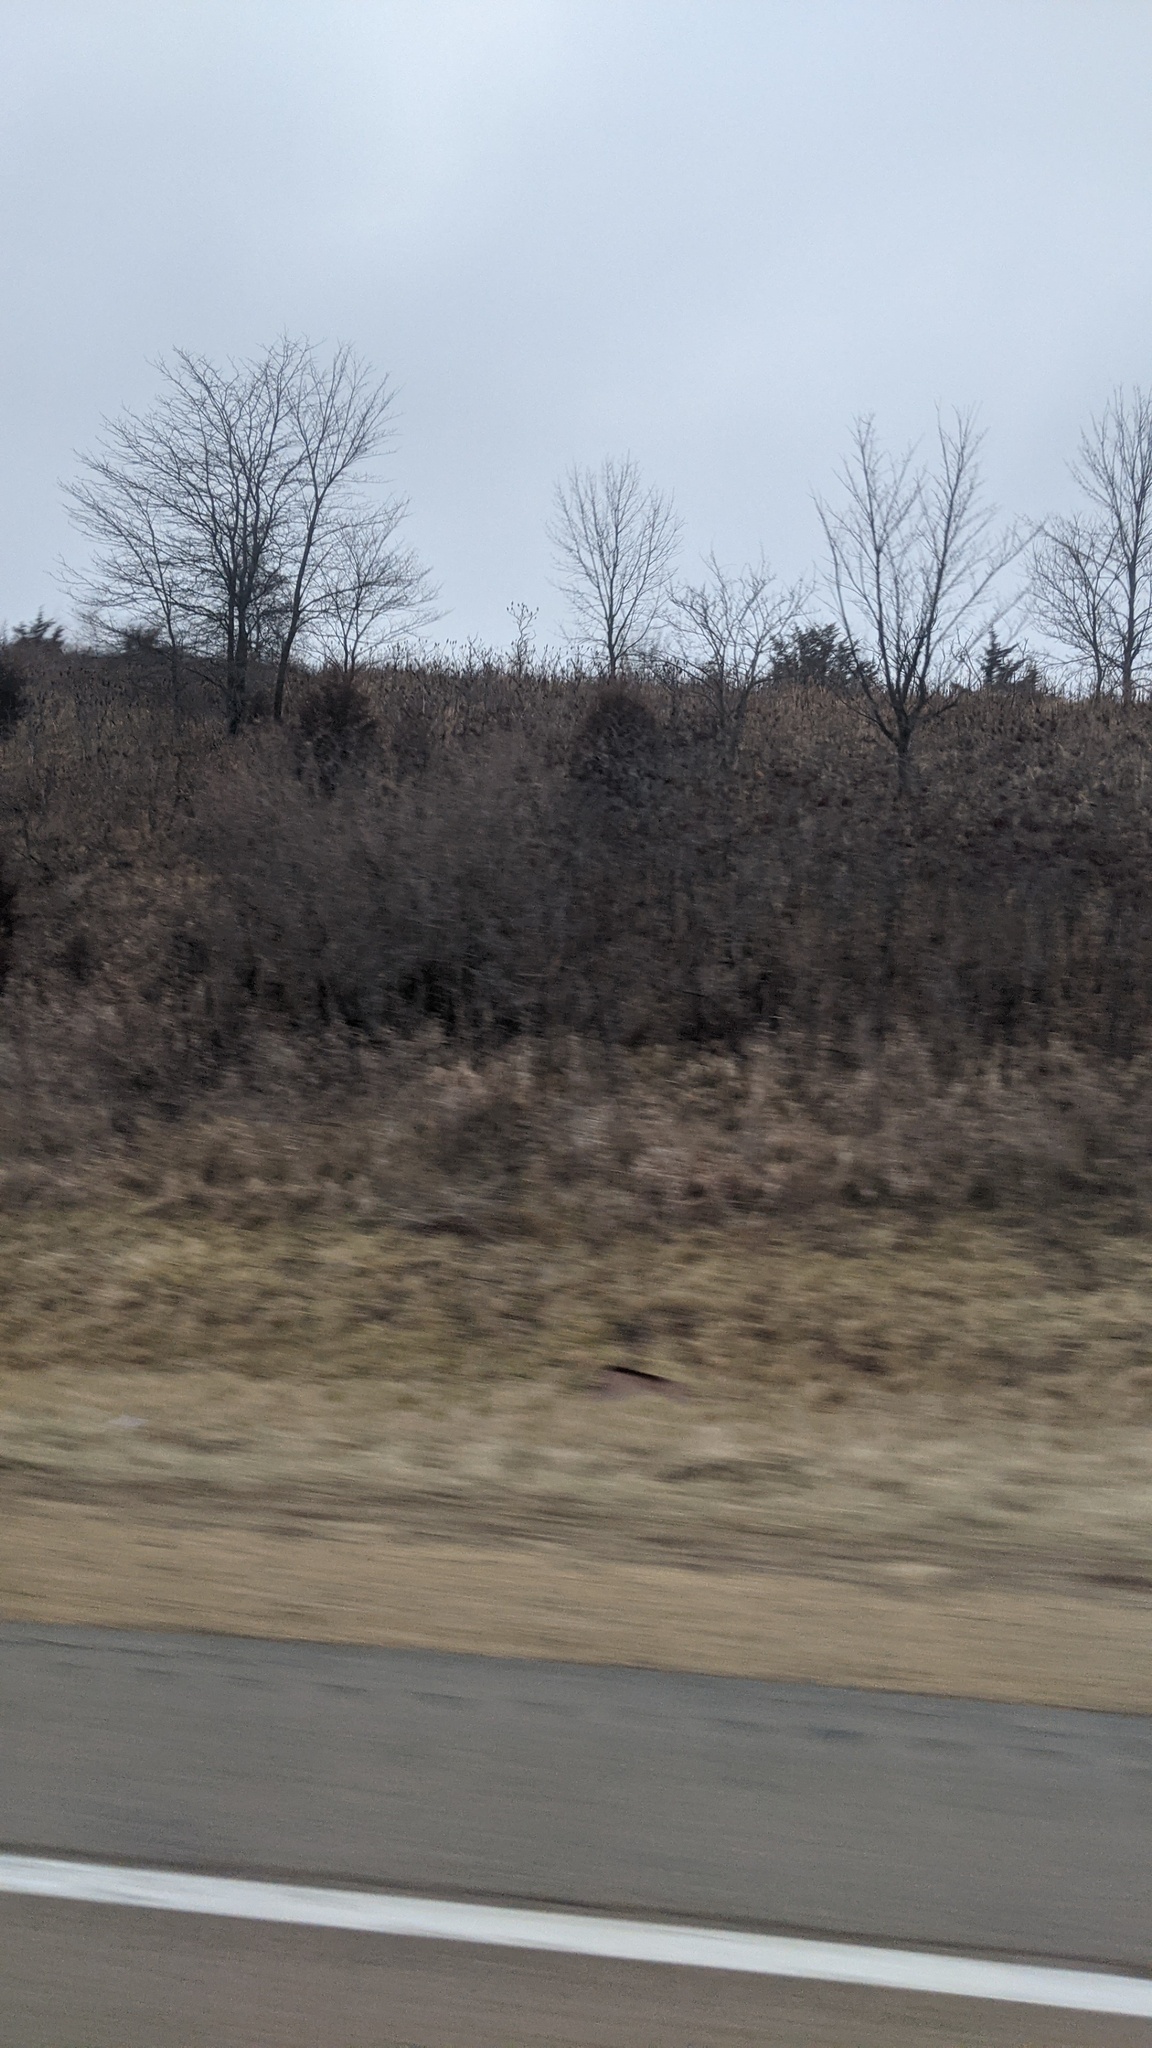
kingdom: Plantae
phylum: Tracheophyta
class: Pinopsida
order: Pinales
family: Cupressaceae
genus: Juniperus
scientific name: Juniperus virginiana
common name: Red juniper
